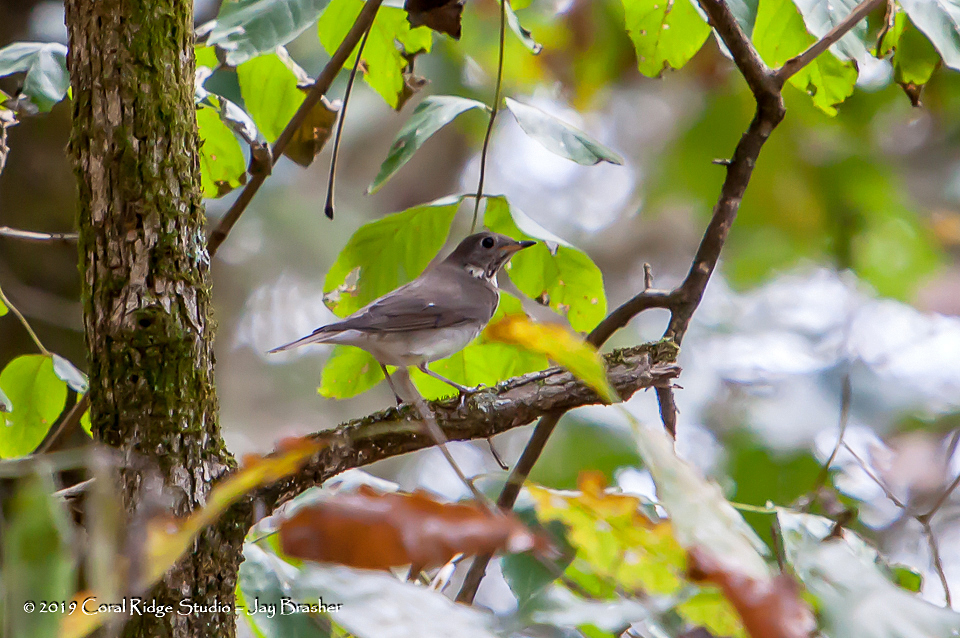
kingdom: Animalia
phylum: Chordata
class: Aves
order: Passeriformes
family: Turdidae
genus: Hylocichla
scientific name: Hylocichla mustelina
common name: Wood thrush
